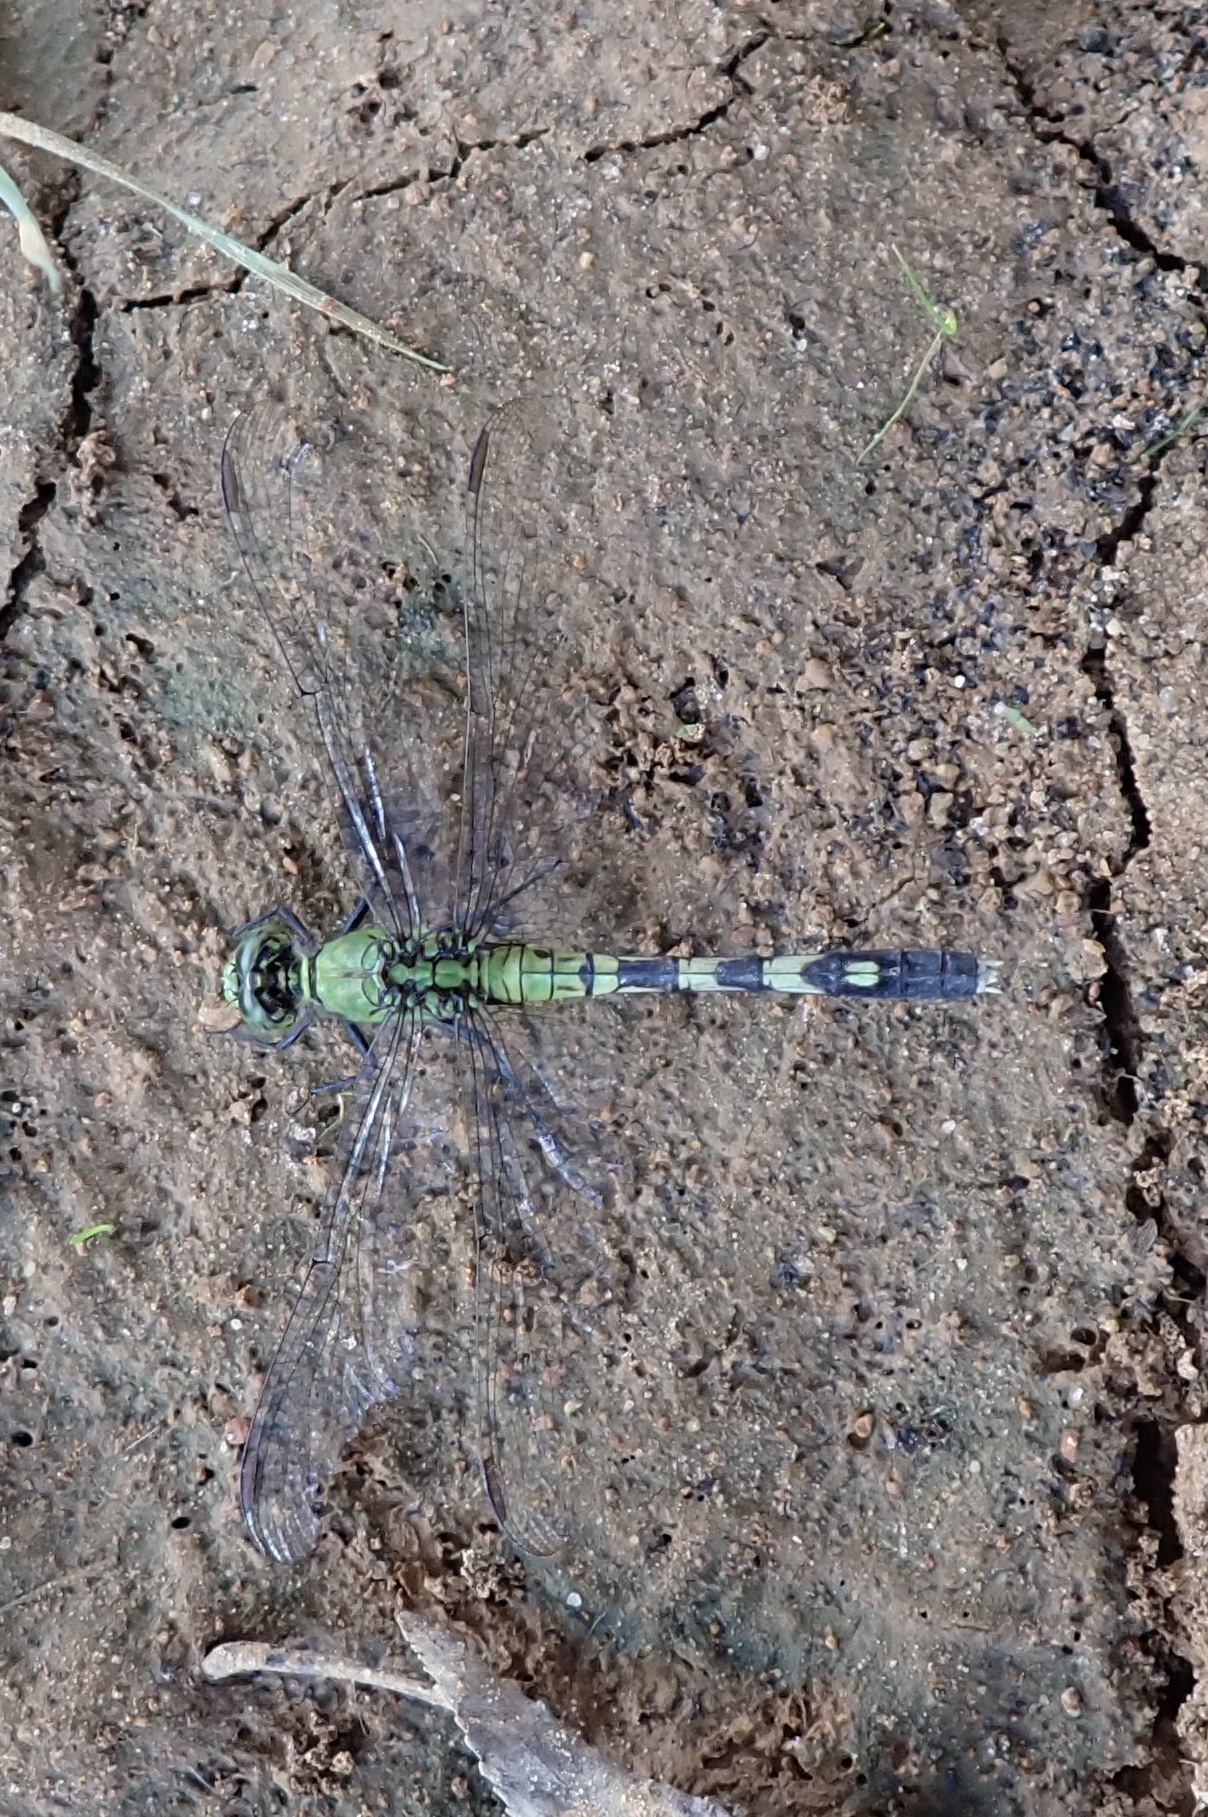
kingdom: Animalia
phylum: Arthropoda
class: Insecta
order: Odonata
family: Libellulidae
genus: Erythemis
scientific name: Erythemis simplicicollis
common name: Eastern pondhawk
